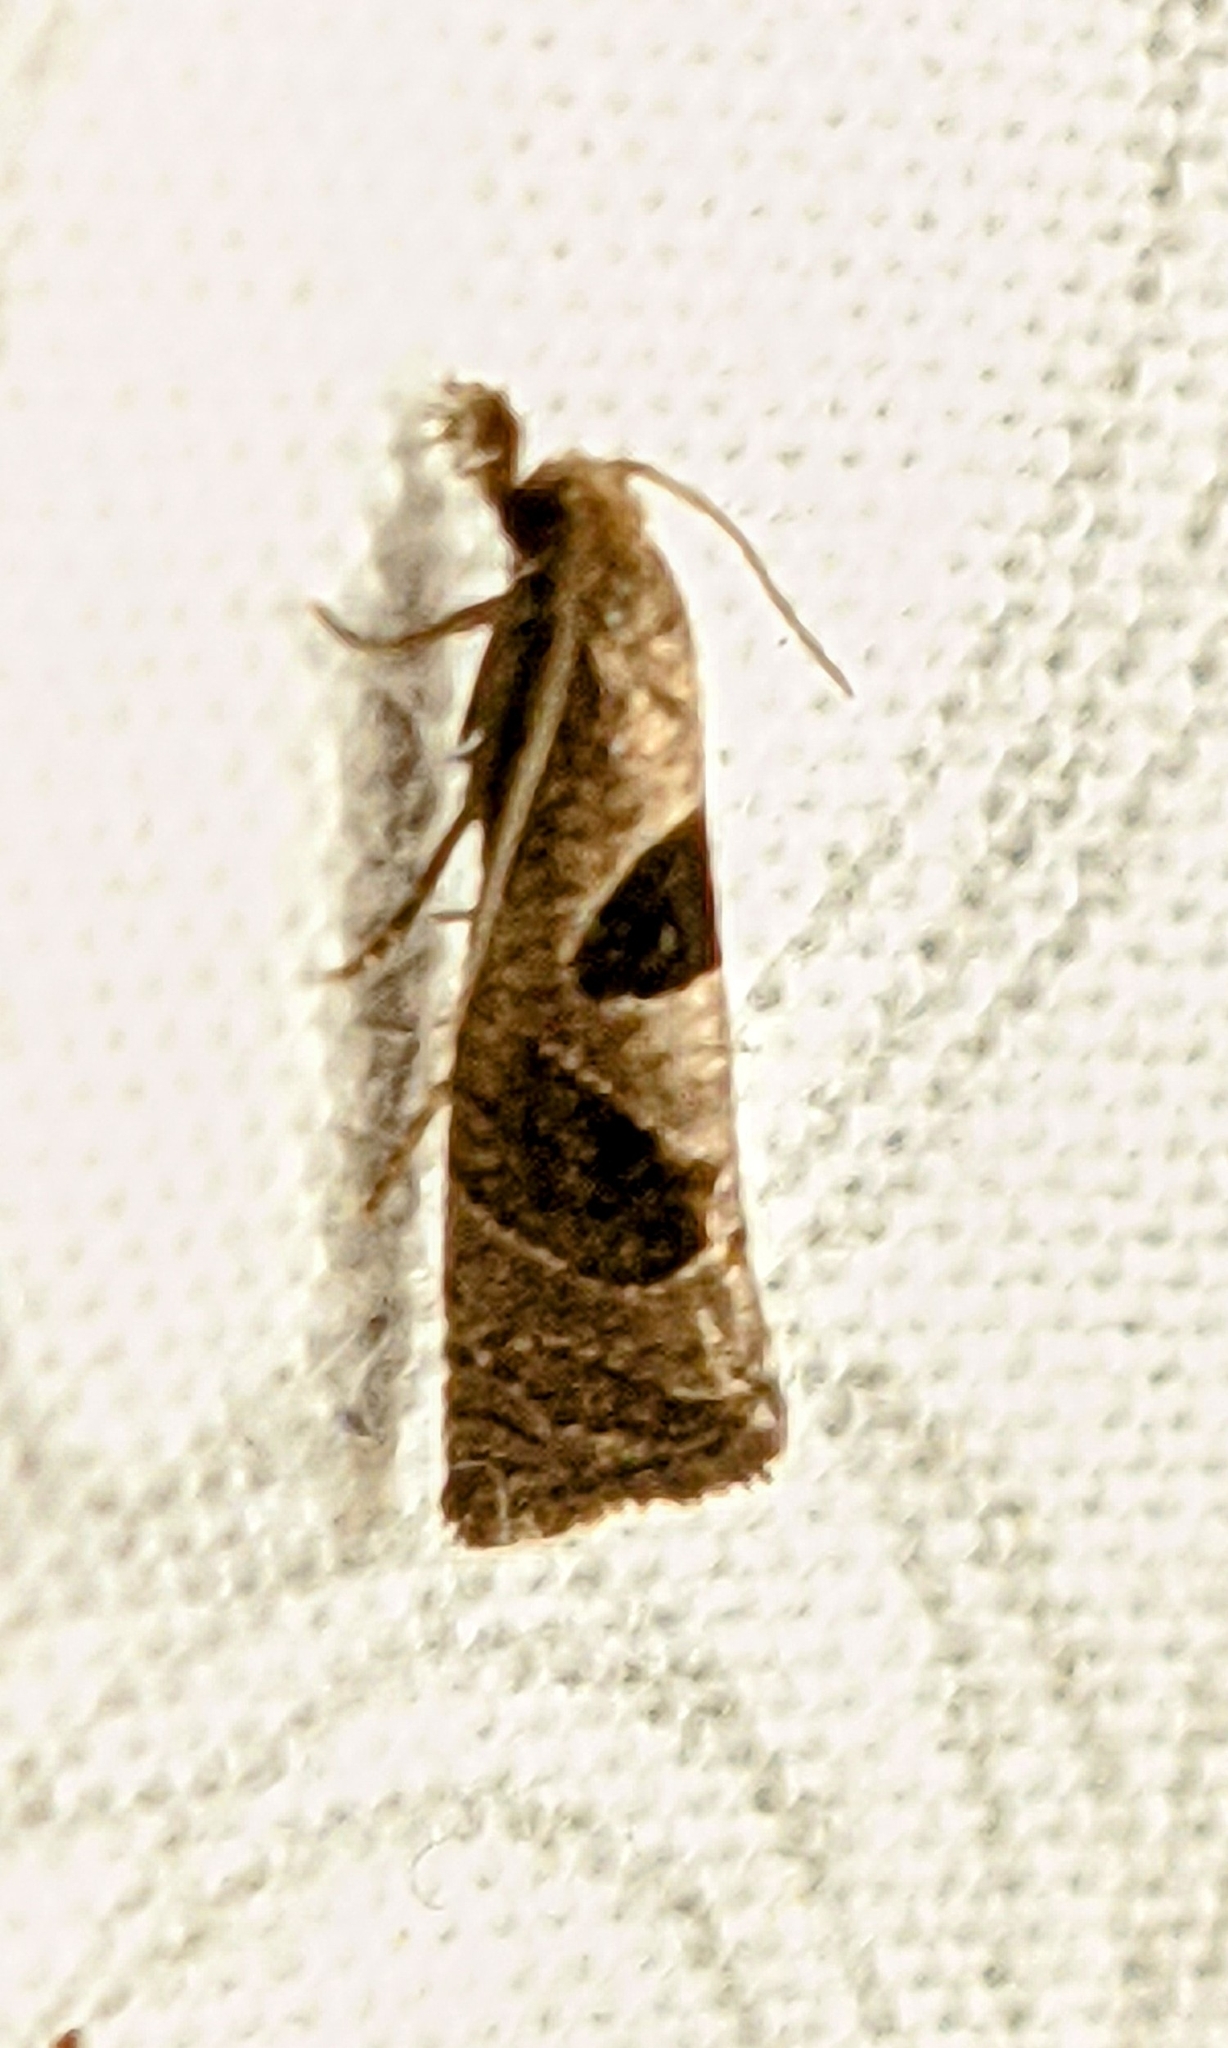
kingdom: Animalia
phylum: Arthropoda
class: Insecta
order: Lepidoptera
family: Tortricidae
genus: Pelochrista
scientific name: Pelochrista dorsisignatana
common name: Triangle-backed pelochrista moth
